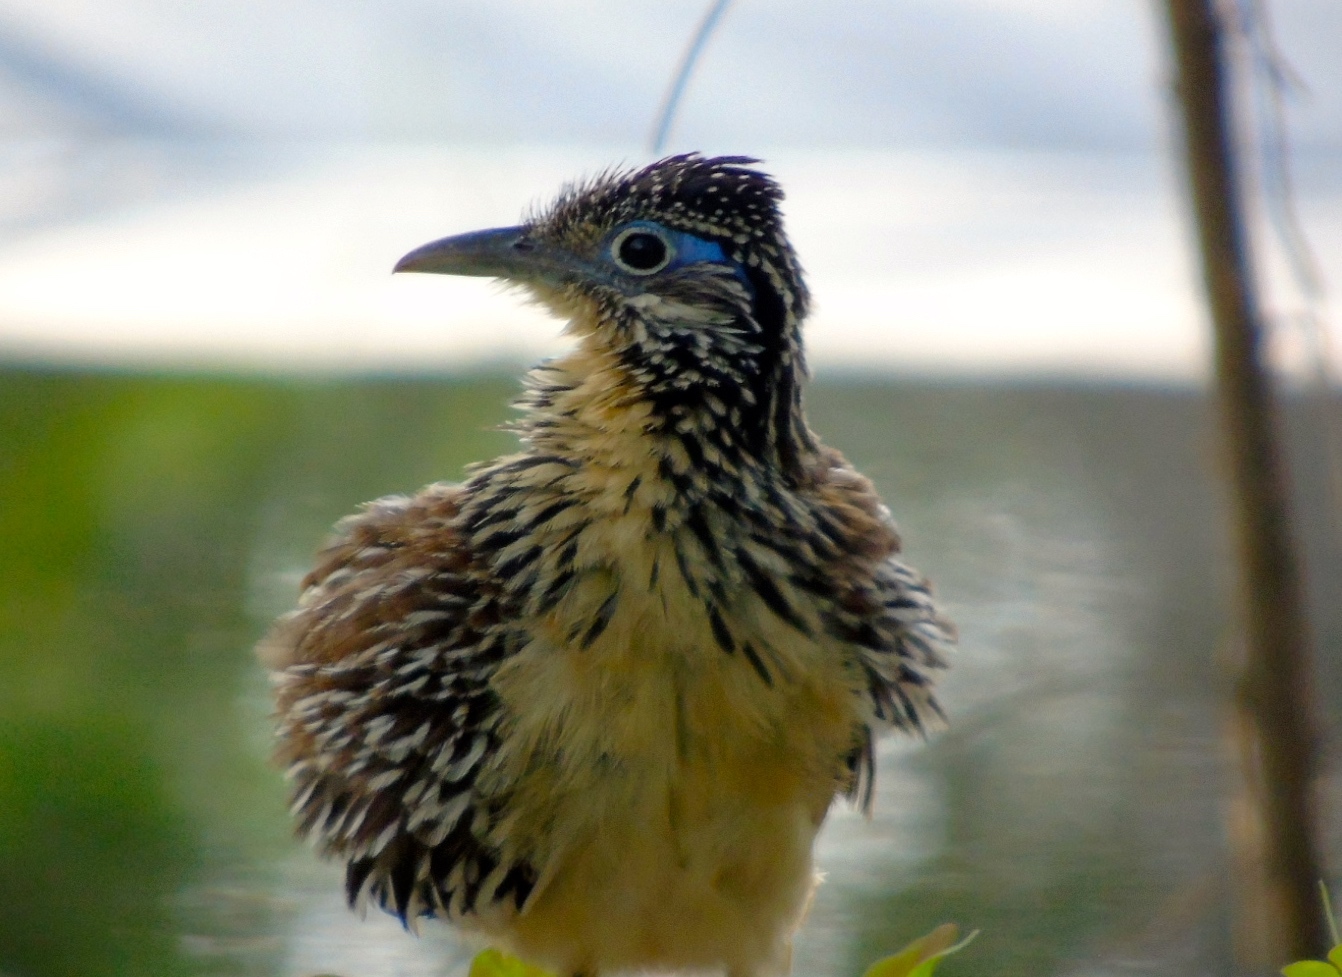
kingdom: Animalia
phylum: Chordata
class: Aves
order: Cuculiformes
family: Cuculidae
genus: Geococcyx
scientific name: Geococcyx velox
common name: Lesser roadrunner
